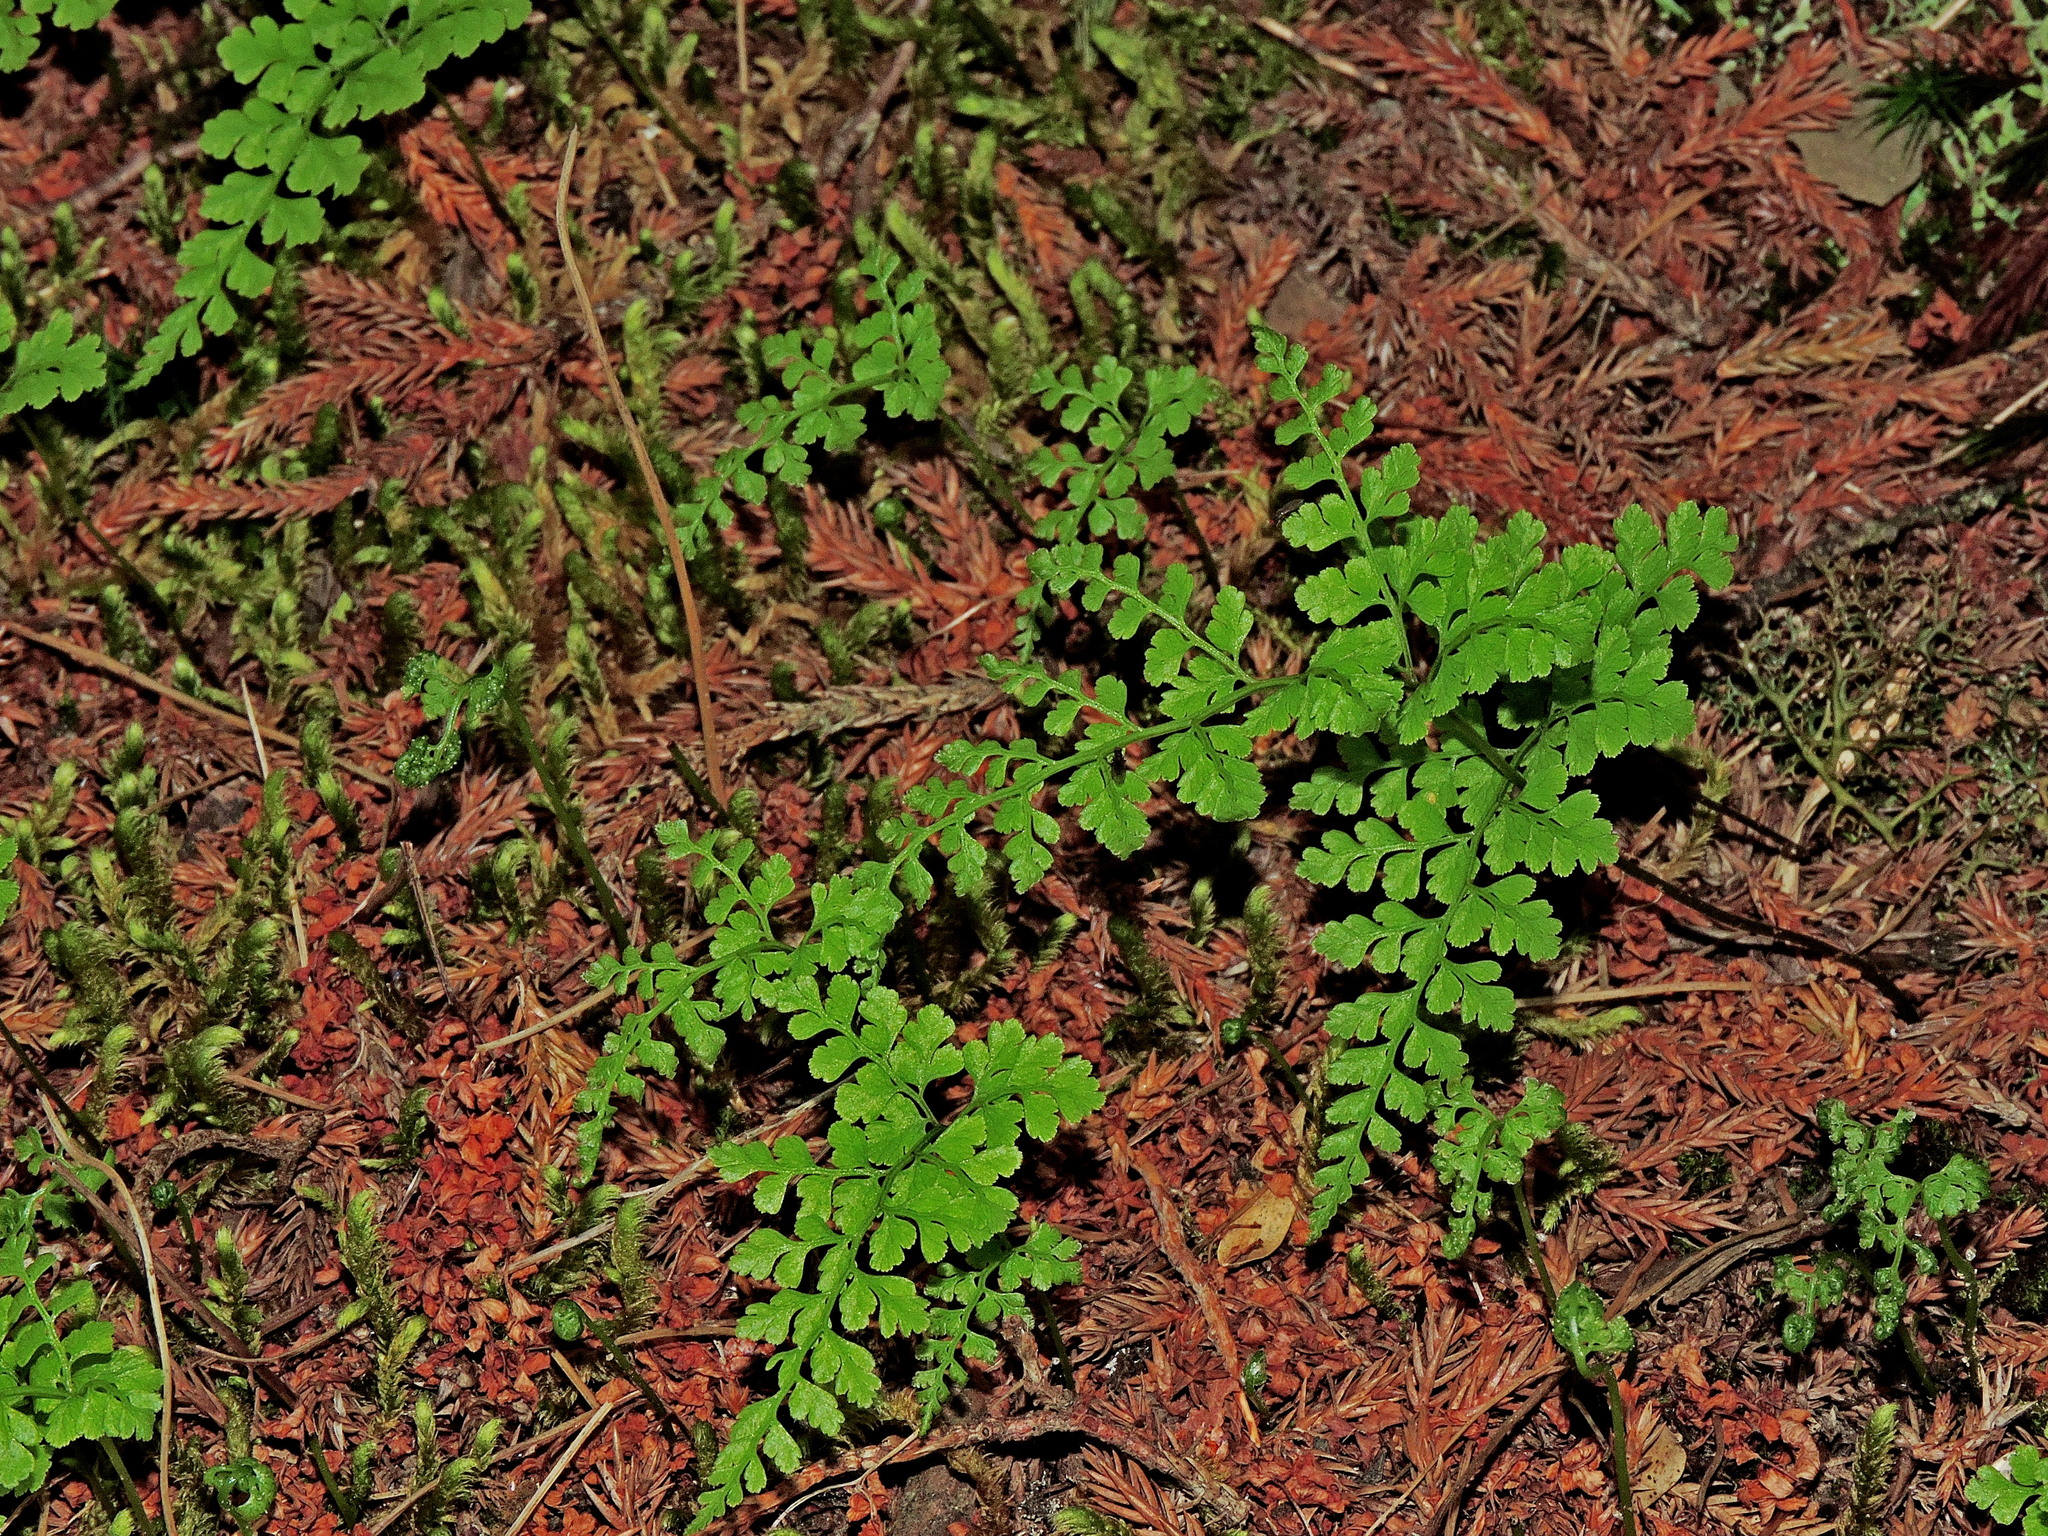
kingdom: Plantae
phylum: Tracheophyta
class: Polypodiopsida
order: Polypodiales
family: Cystopteridaceae
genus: Cystopteris
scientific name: Cystopteris moupinensis
